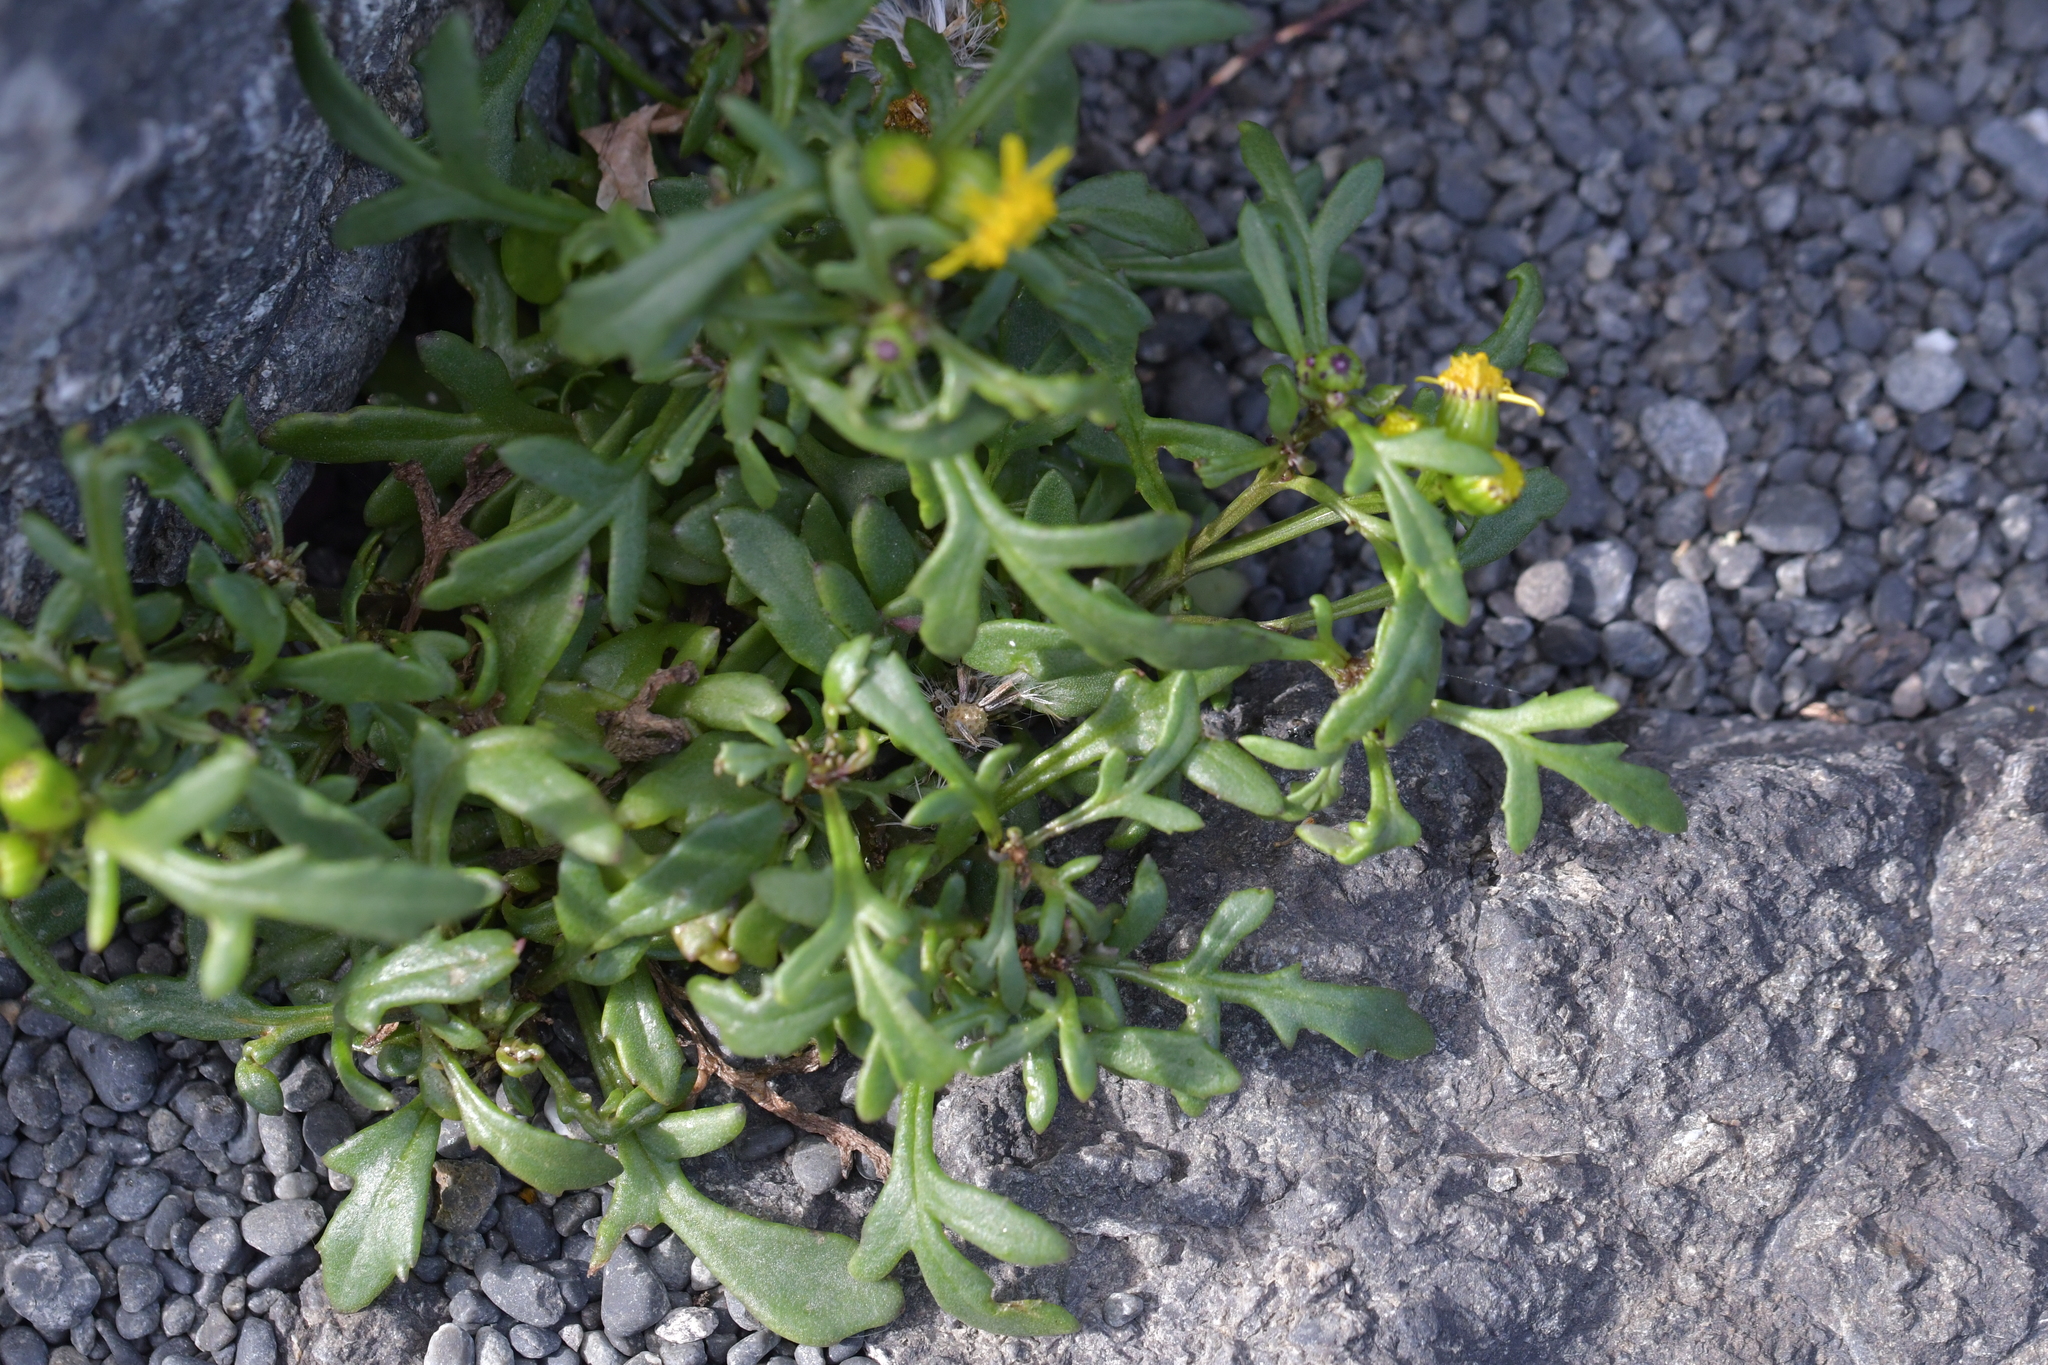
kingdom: Plantae
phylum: Tracheophyta
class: Magnoliopsida
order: Asterales
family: Asteraceae
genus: Senecio
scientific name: Senecio skirrhodon
